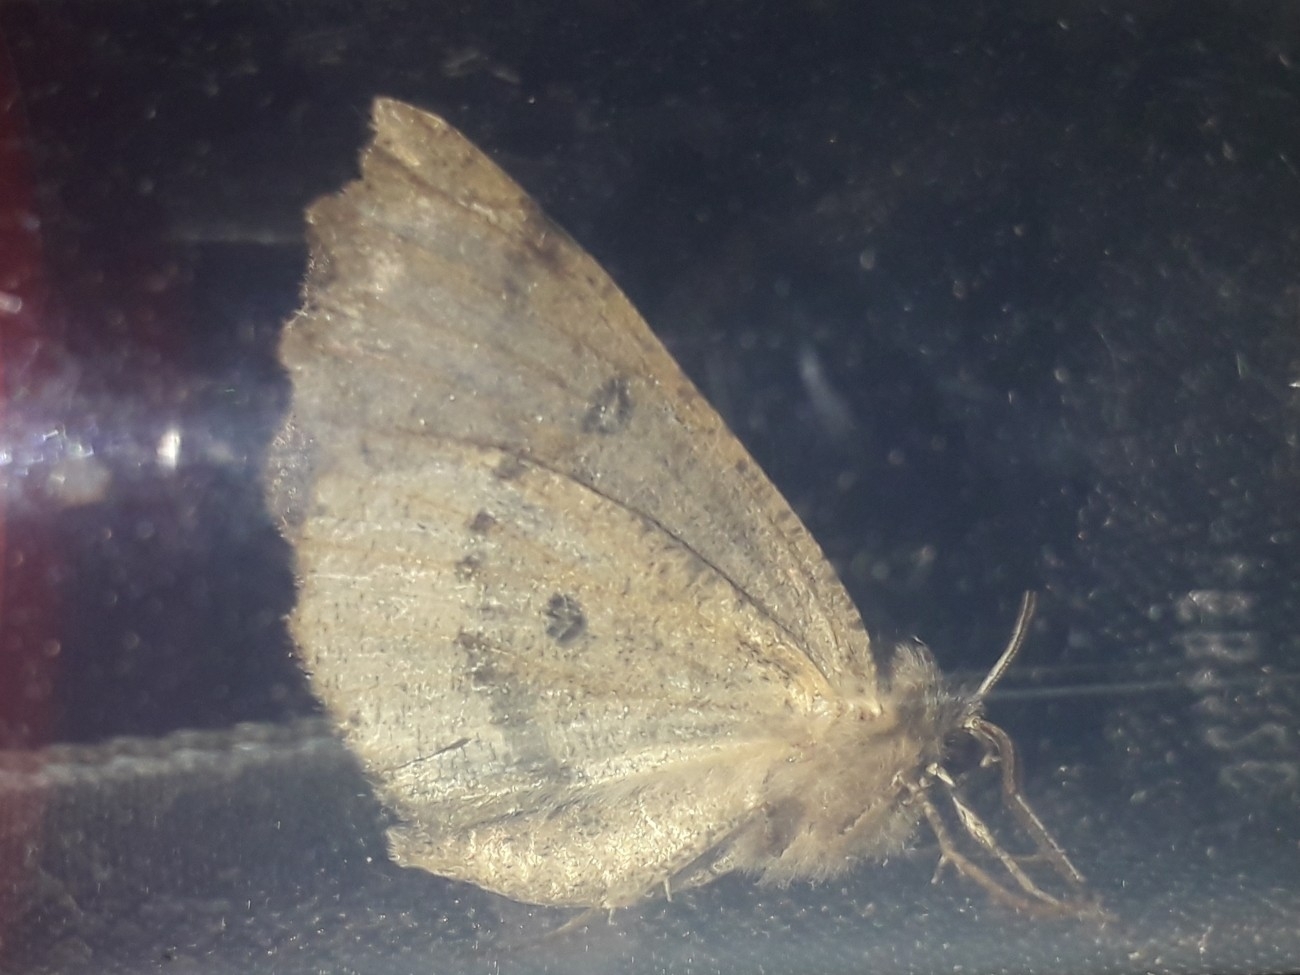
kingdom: Animalia
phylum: Arthropoda
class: Insecta
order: Lepidoptera
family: Geometridae
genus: Odontopera
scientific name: Odontopera bidentata
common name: Scalloped hazel
